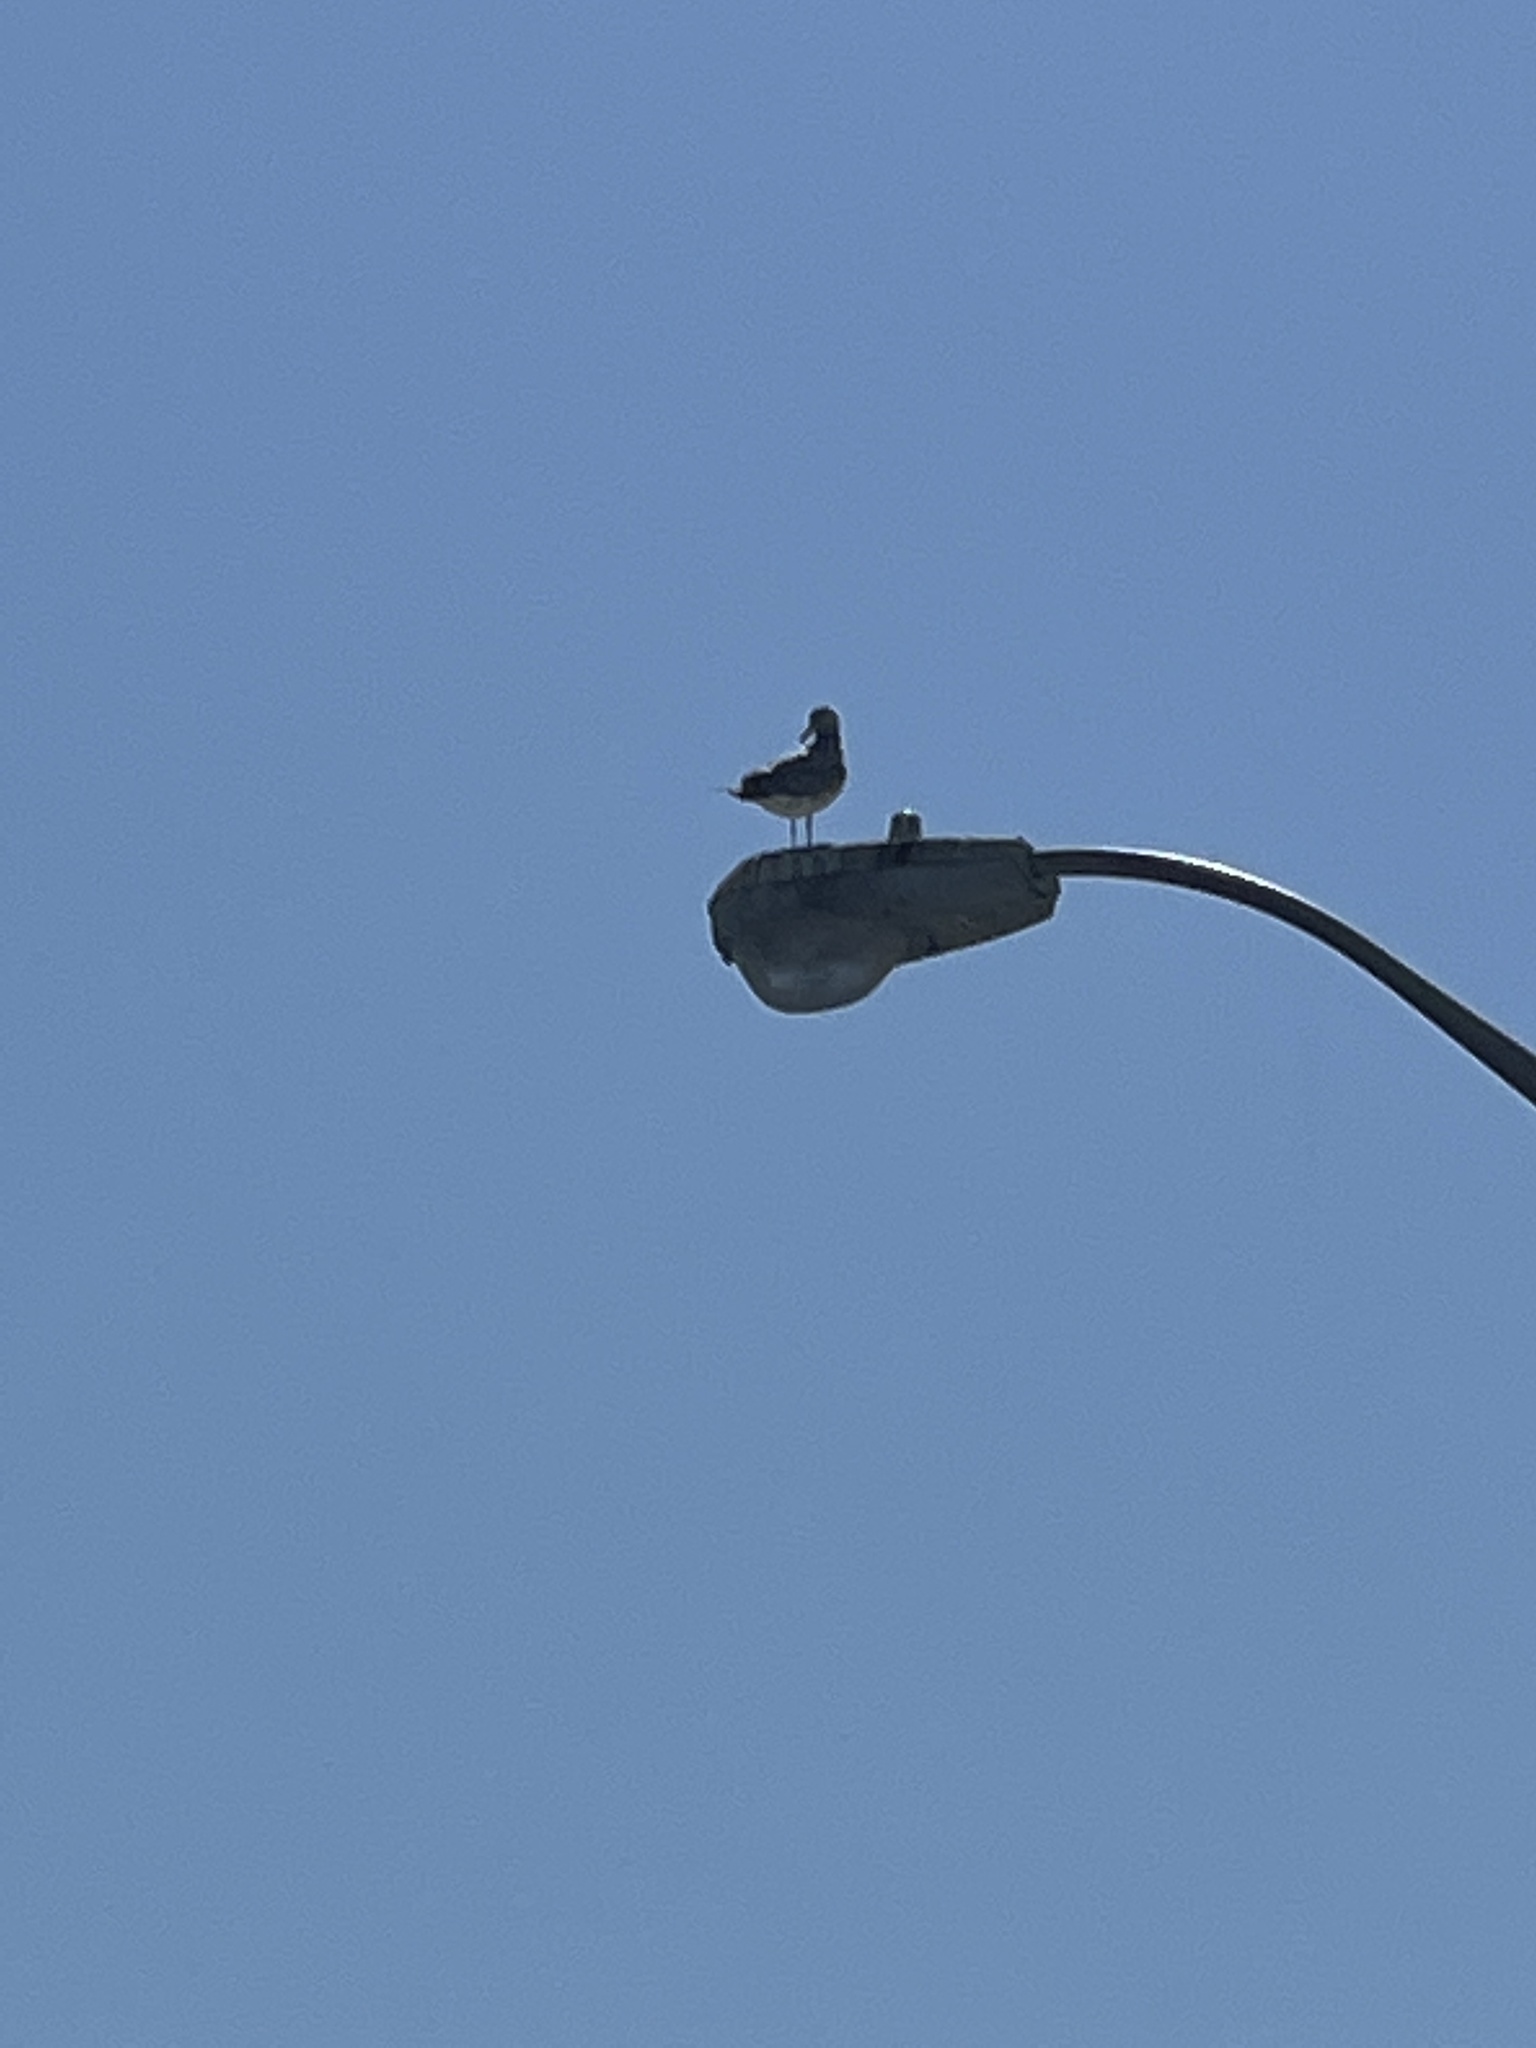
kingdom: Animalia
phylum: Chordata
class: Aves
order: Charadriiformes
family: Laridae
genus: Larus
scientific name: Larus
